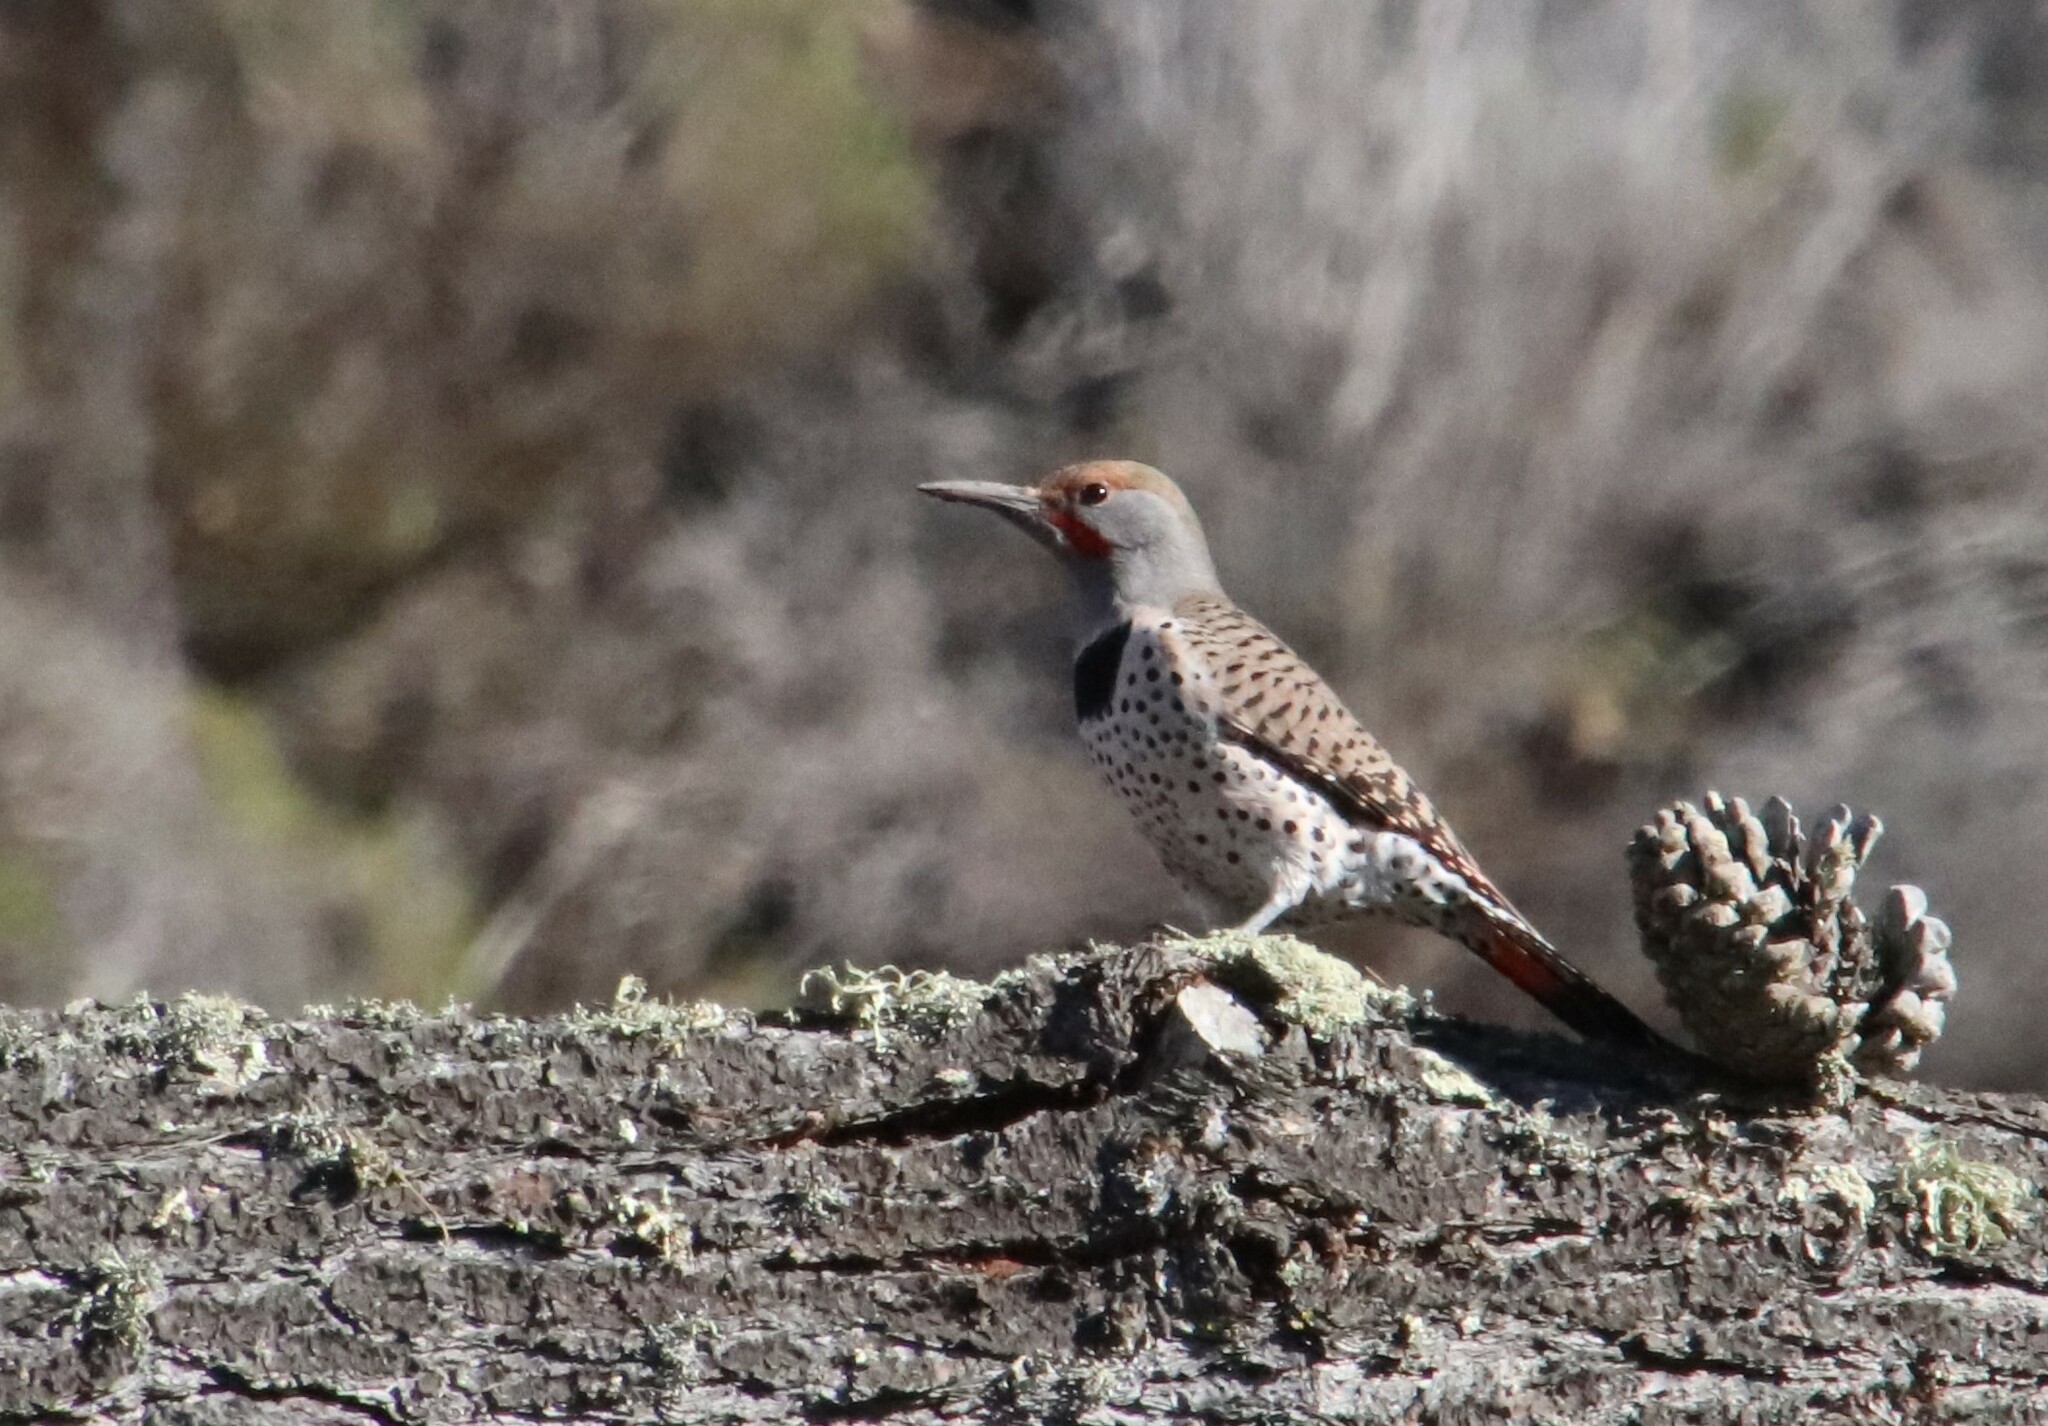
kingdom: Animalia
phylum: Chordata
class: Aves
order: Piciformes
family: Picidae
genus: Colaptes
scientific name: Colaptes auratus
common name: Northern flicker
